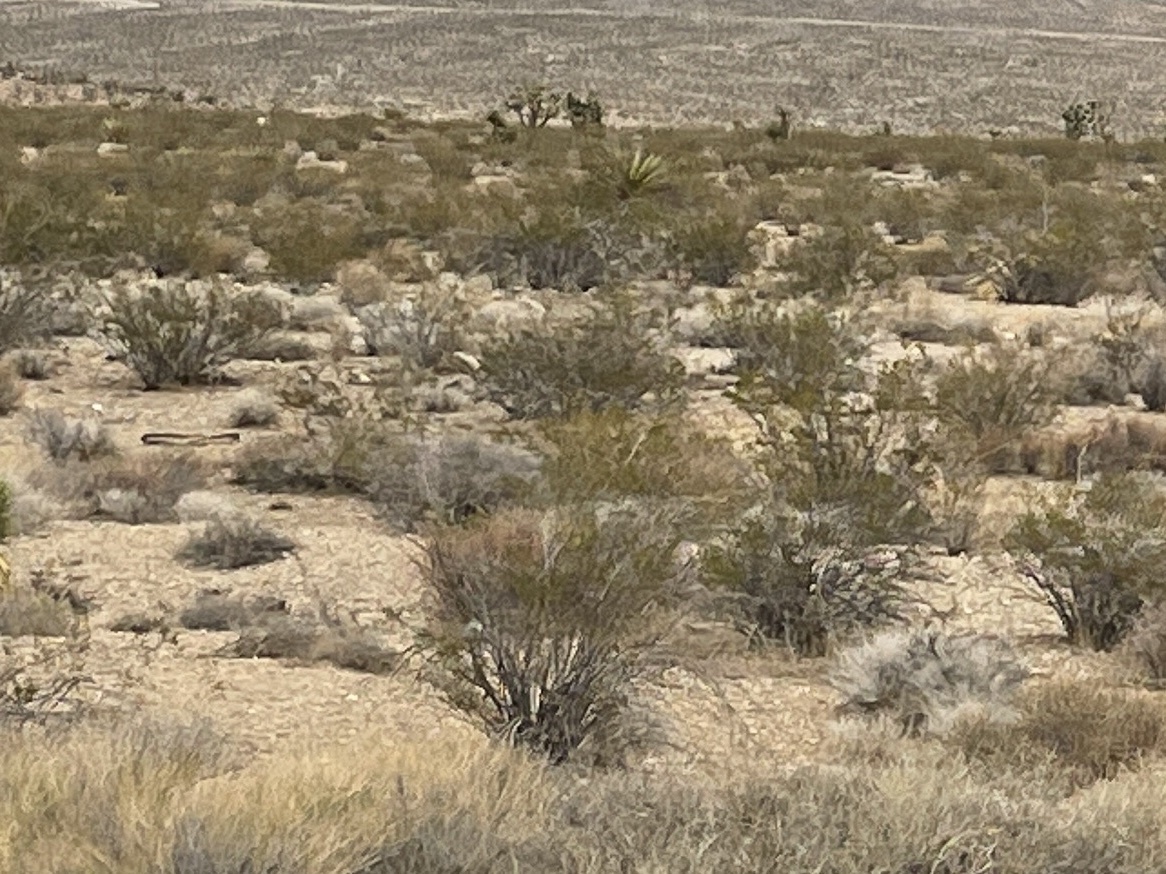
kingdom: Plantae
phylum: Tracheophyta
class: Magnoliopsida
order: Zygophyllales
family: Zygophyllaceae
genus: Larrea
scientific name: Larrea tridentata
